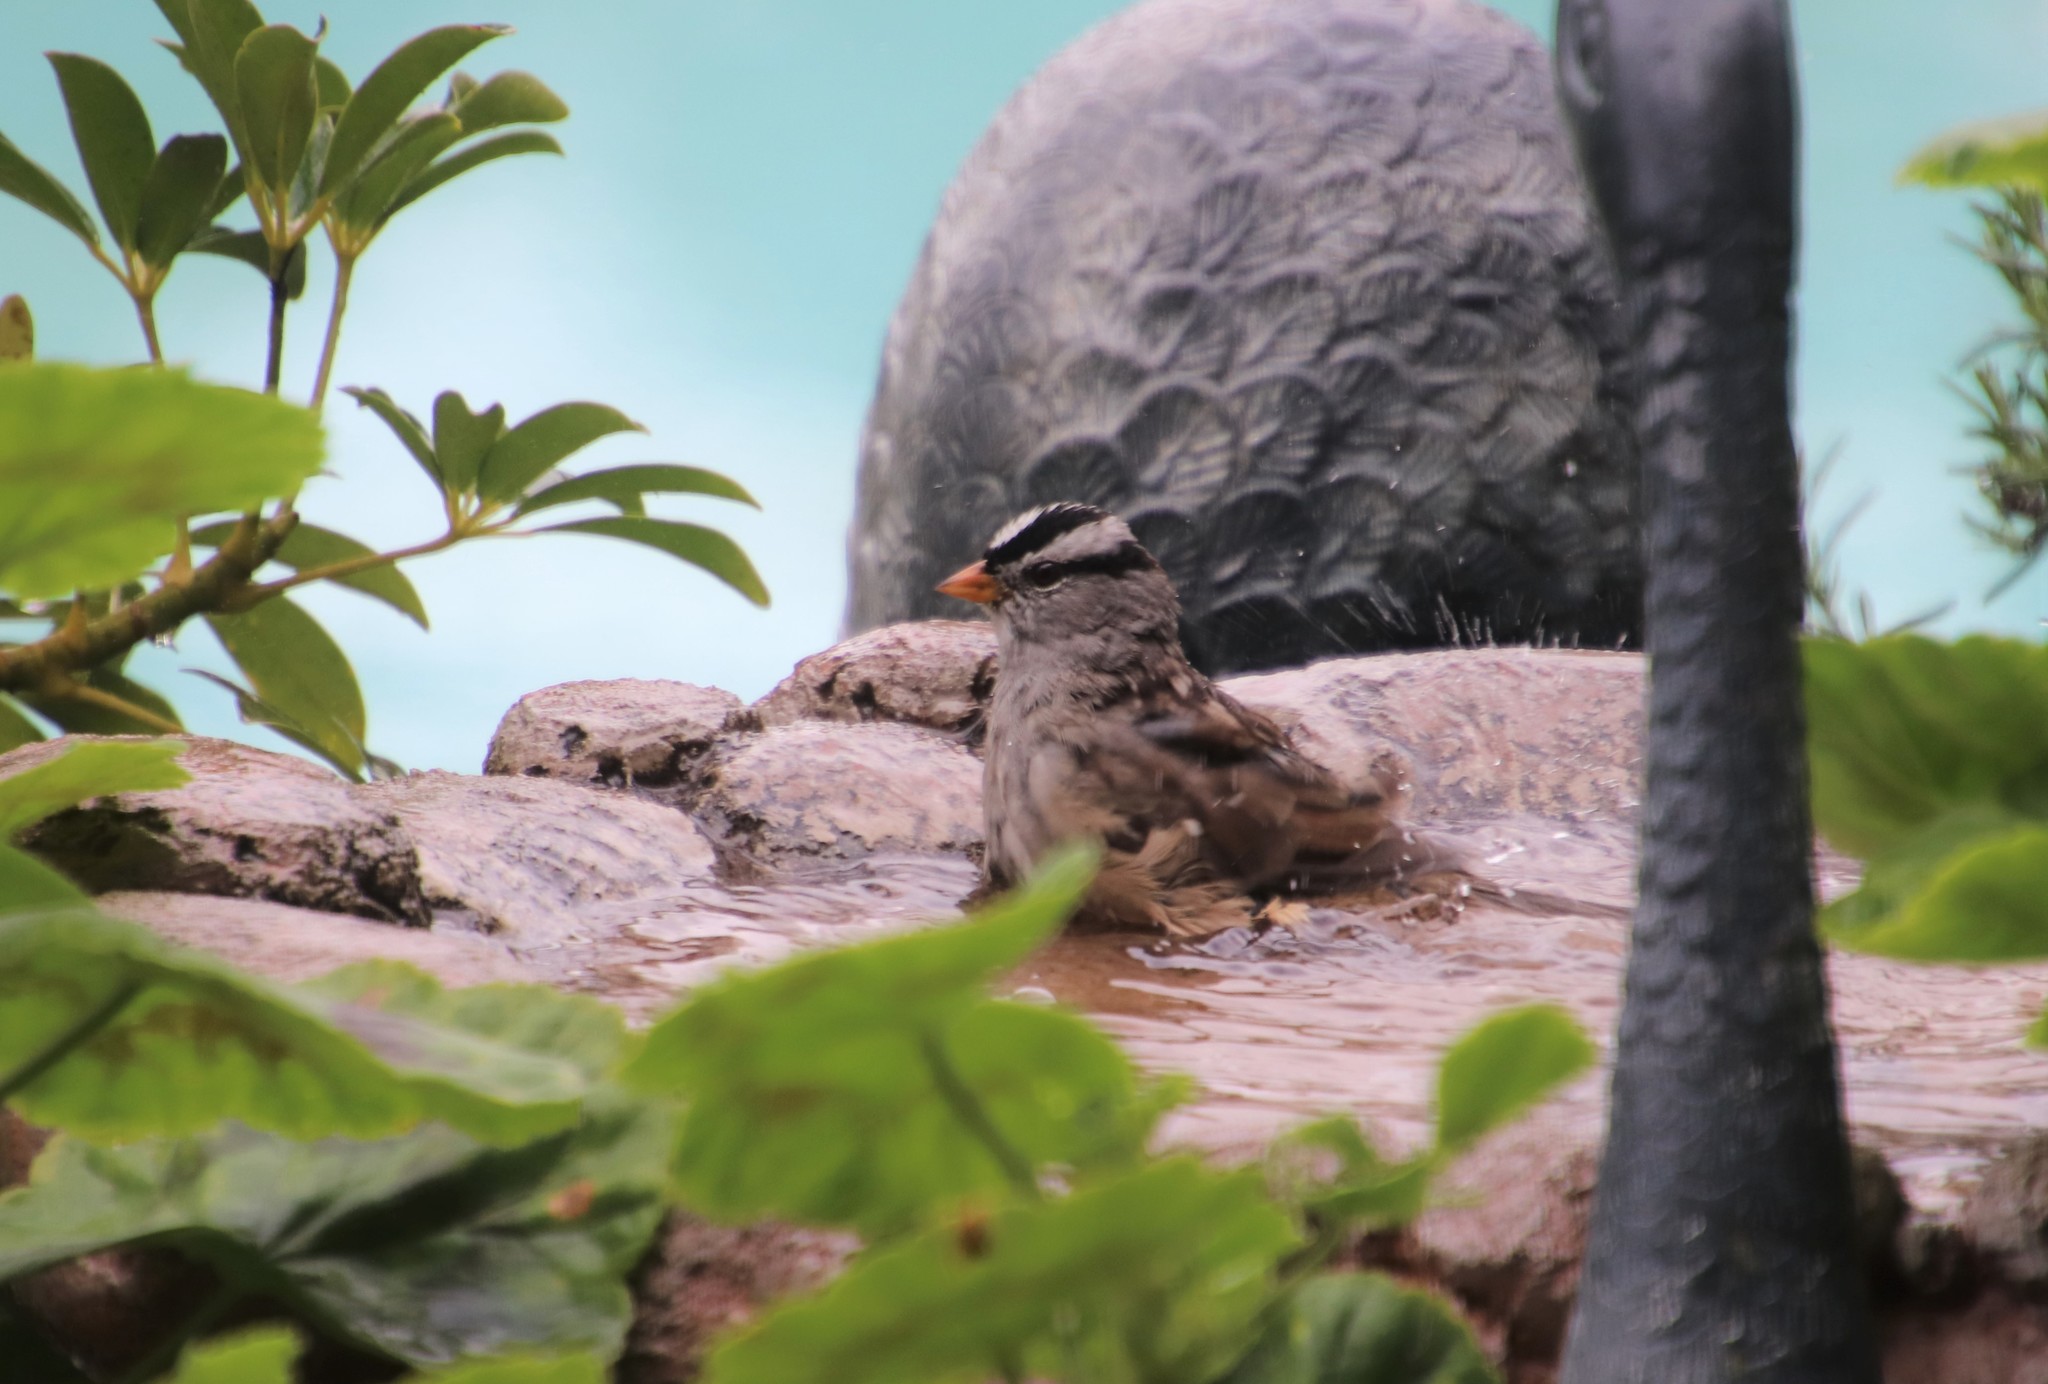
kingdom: Animalia
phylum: Chordata
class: Aves
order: Passeriformes
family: Passerellidae
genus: Zonotrichia
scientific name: Zonotrichia leucophrys
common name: White-crowned sparrow
